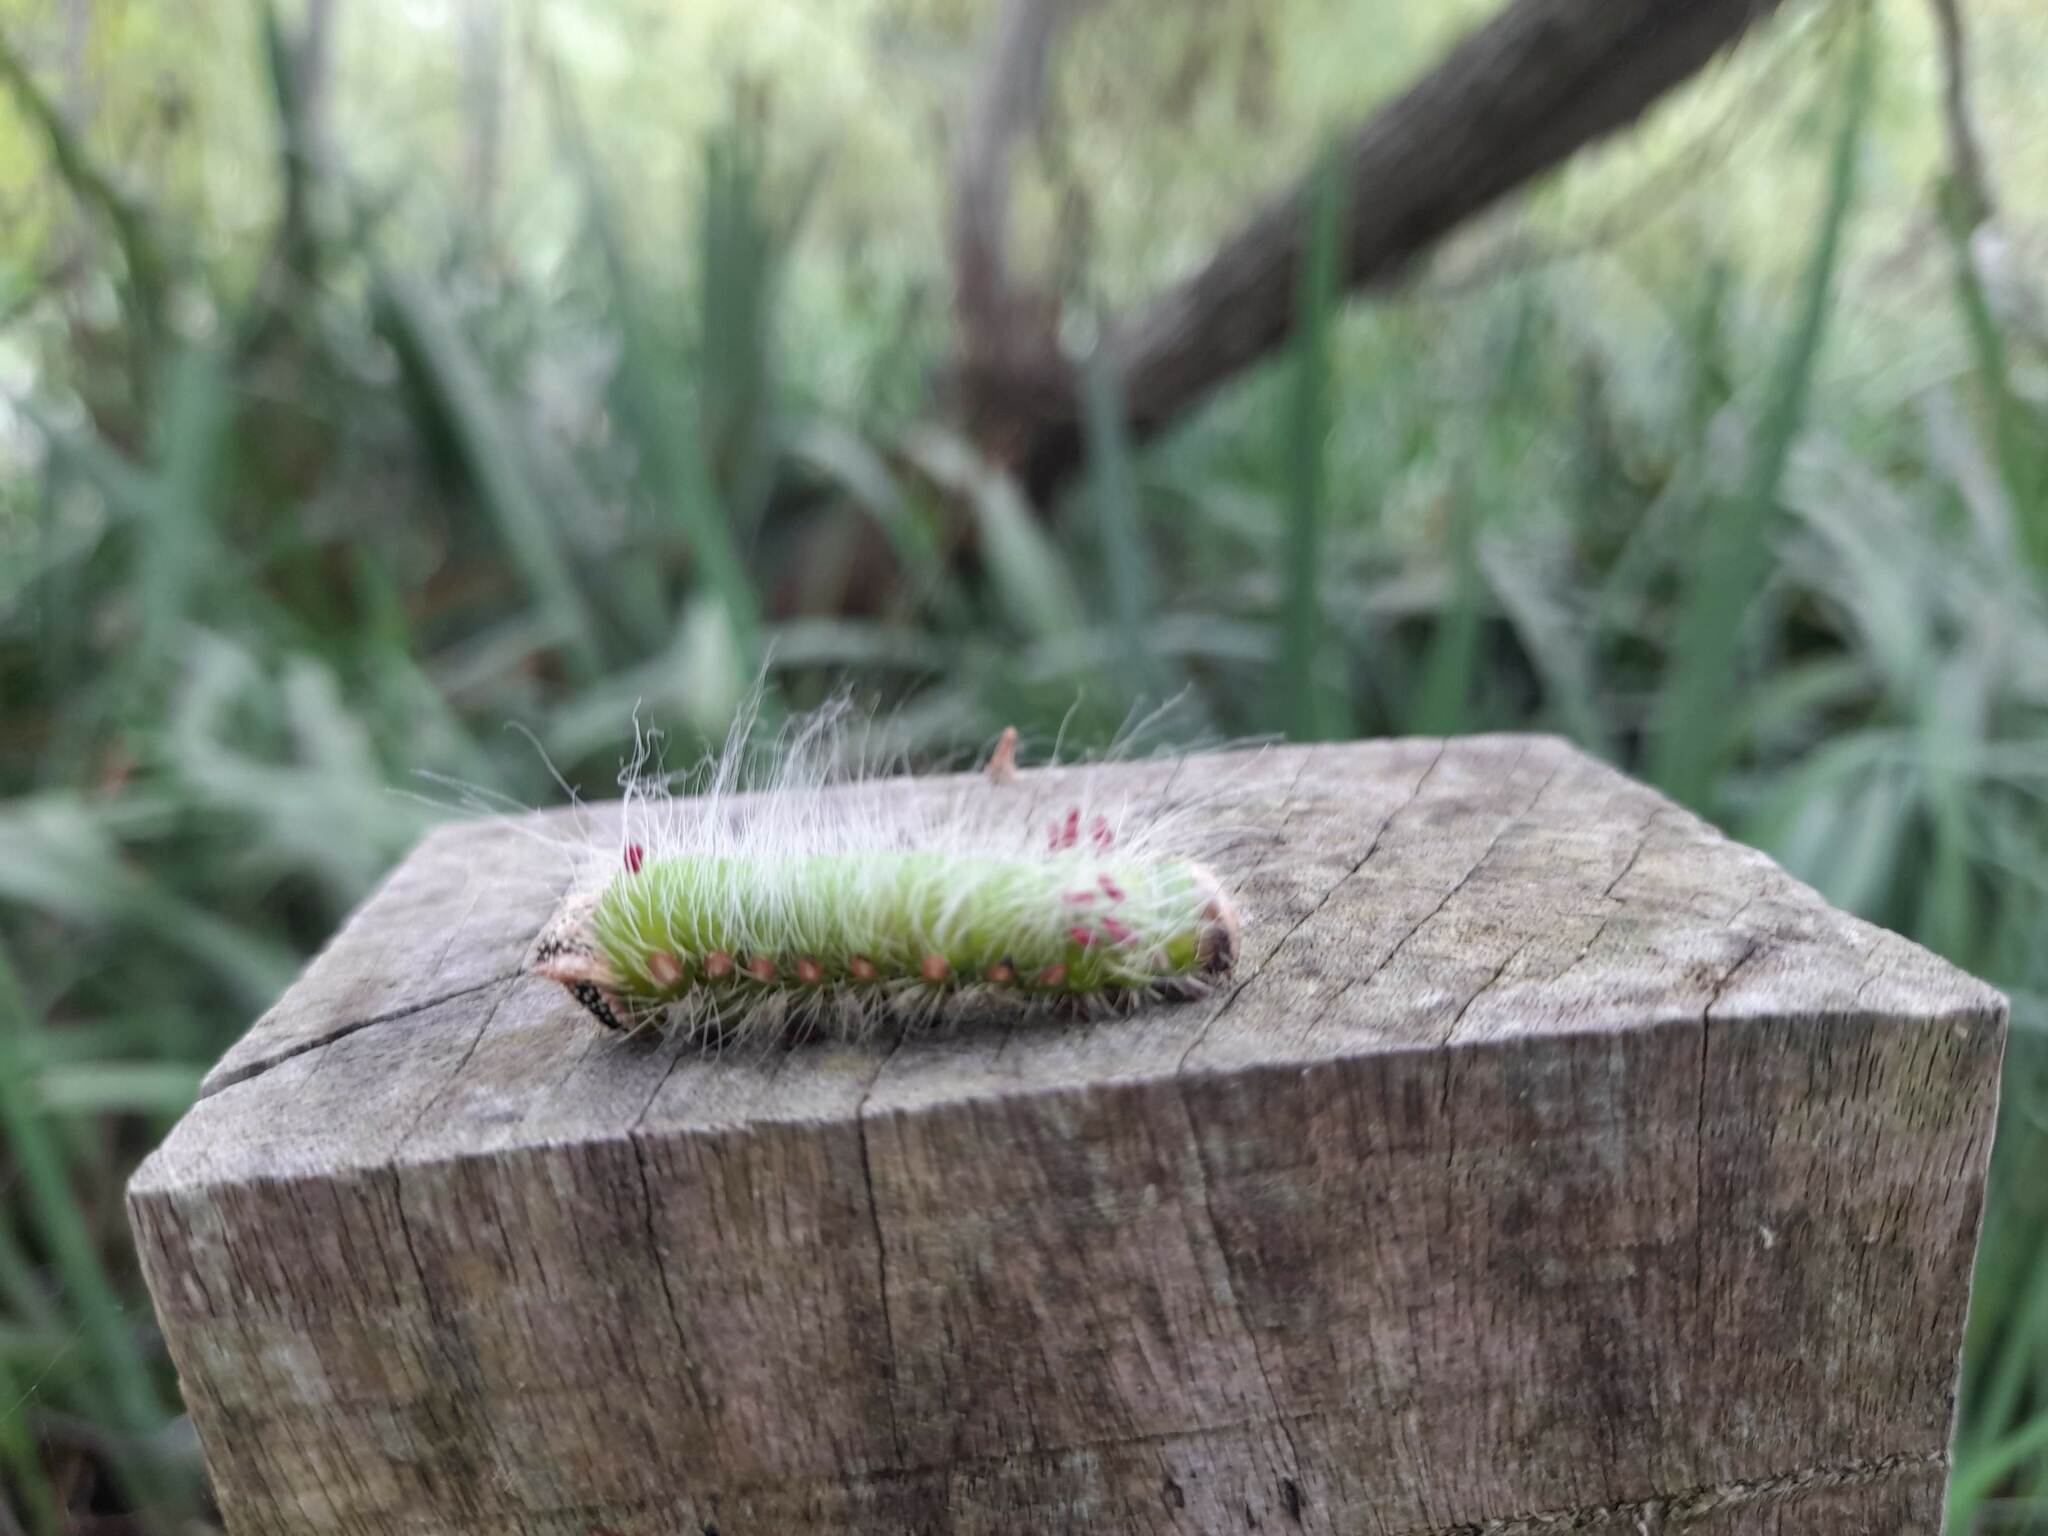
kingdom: Animalia
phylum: Arthropoda
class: Insecta
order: Lepidoptera
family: Saturniidae
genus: Eacles
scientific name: Eacles imperialis
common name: Imperial moth
